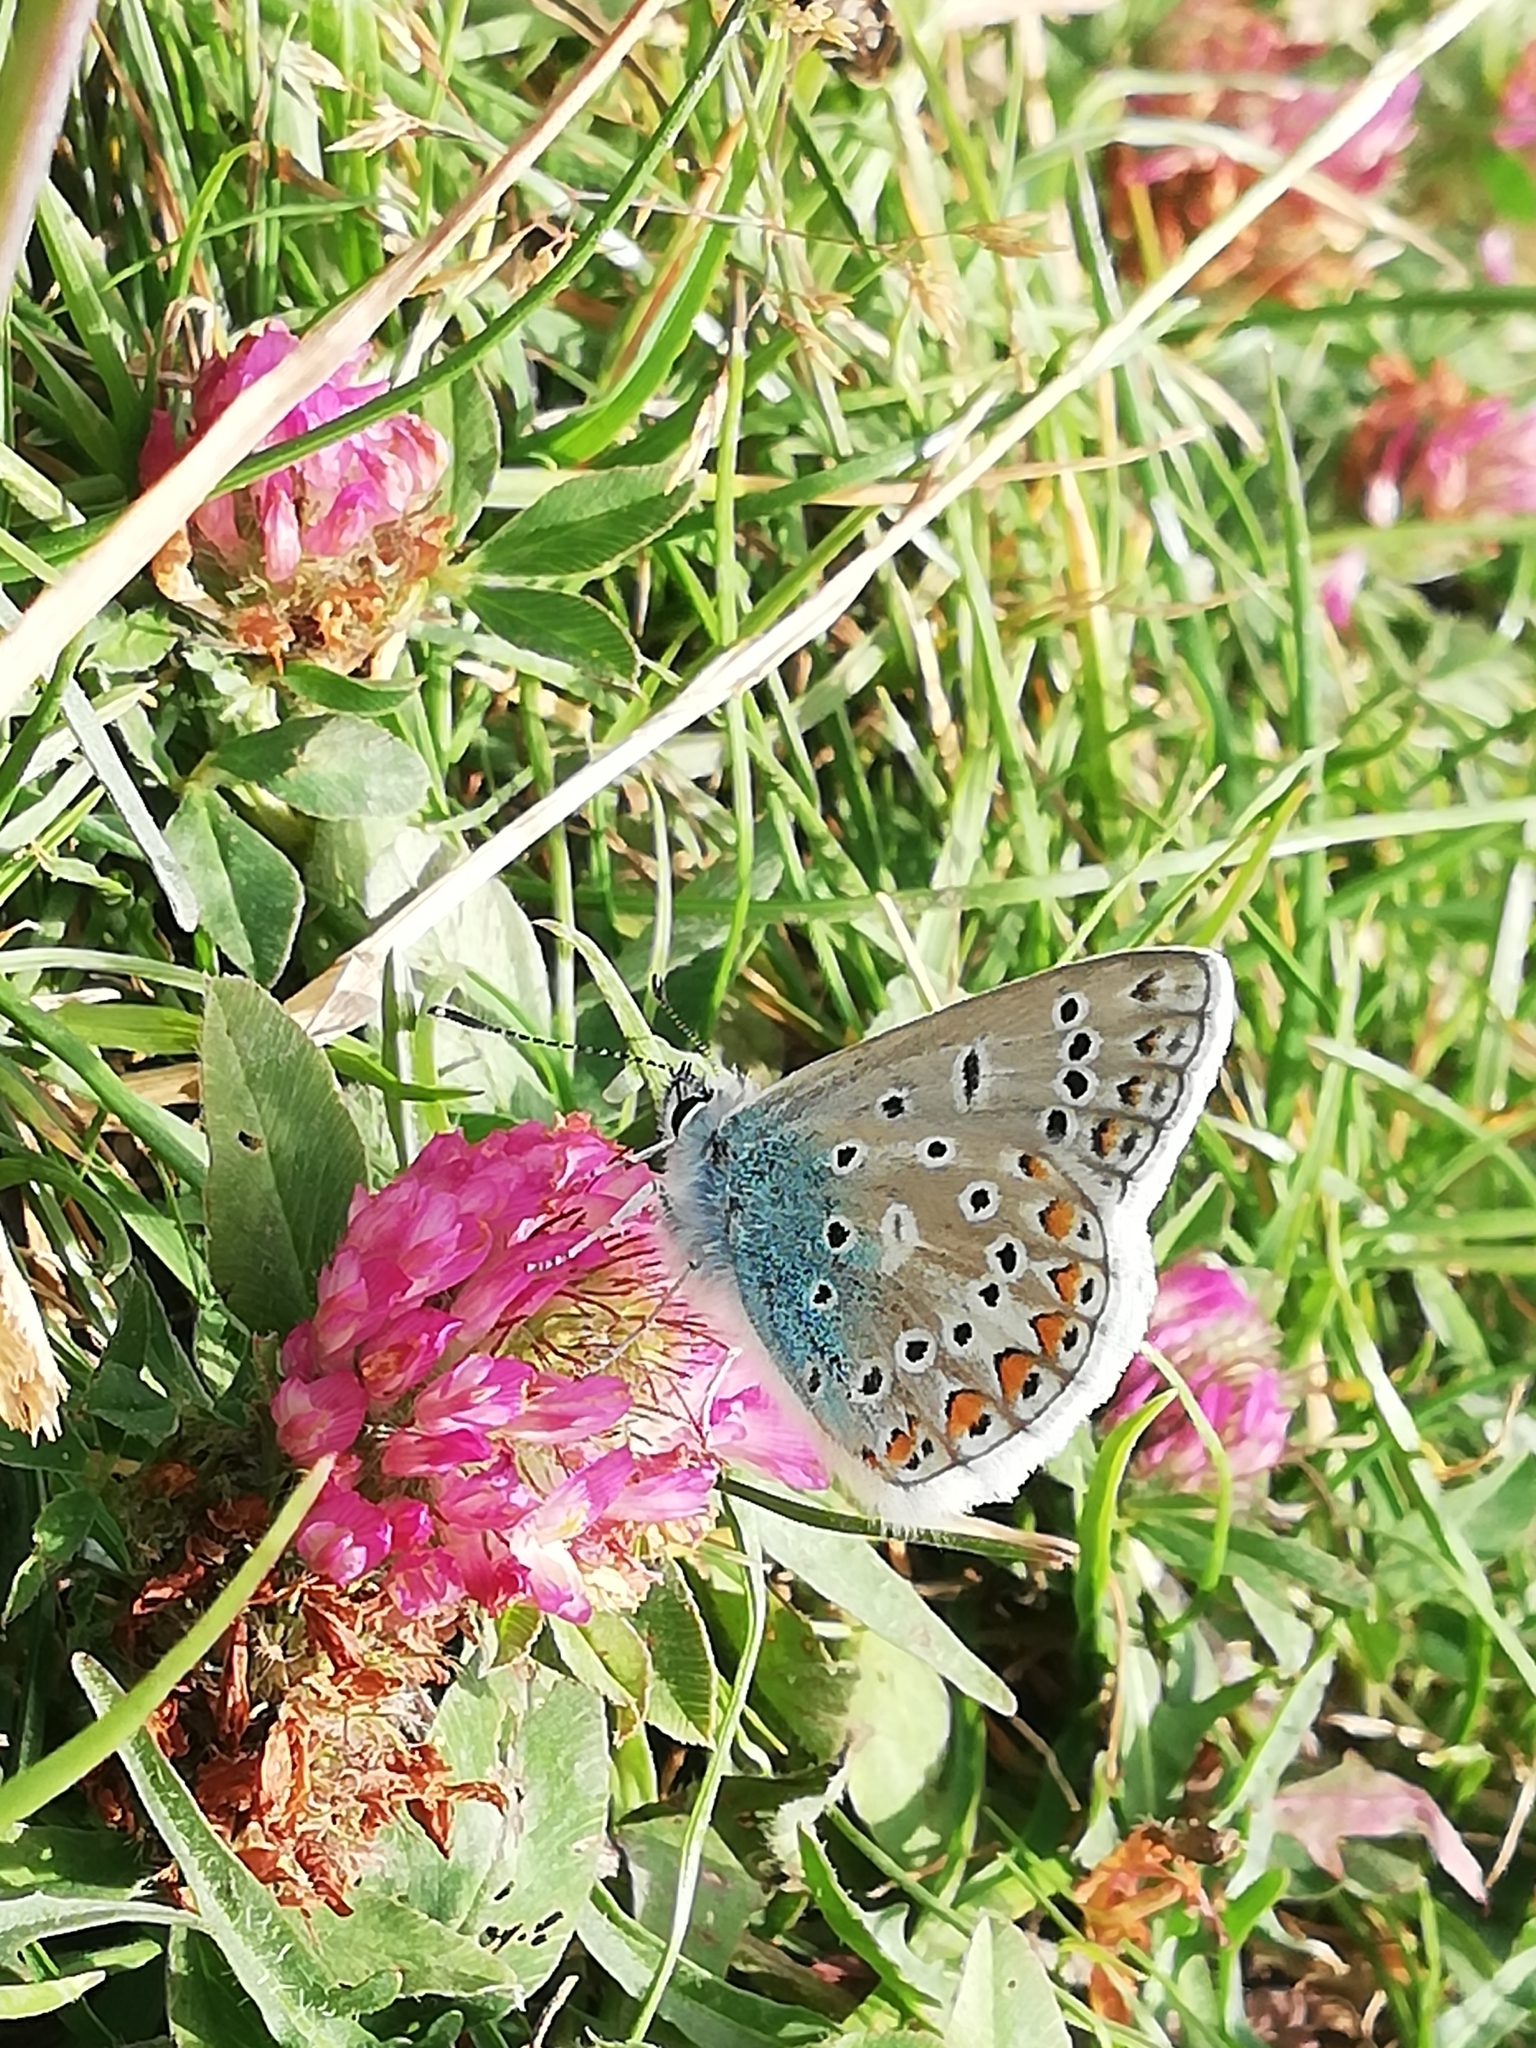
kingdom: Animalia
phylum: Arthropoda
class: Insecta
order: Lepidoptera
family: Lycaenidae
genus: Polyommatus
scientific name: Polyommatus icarus
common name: Common blue
